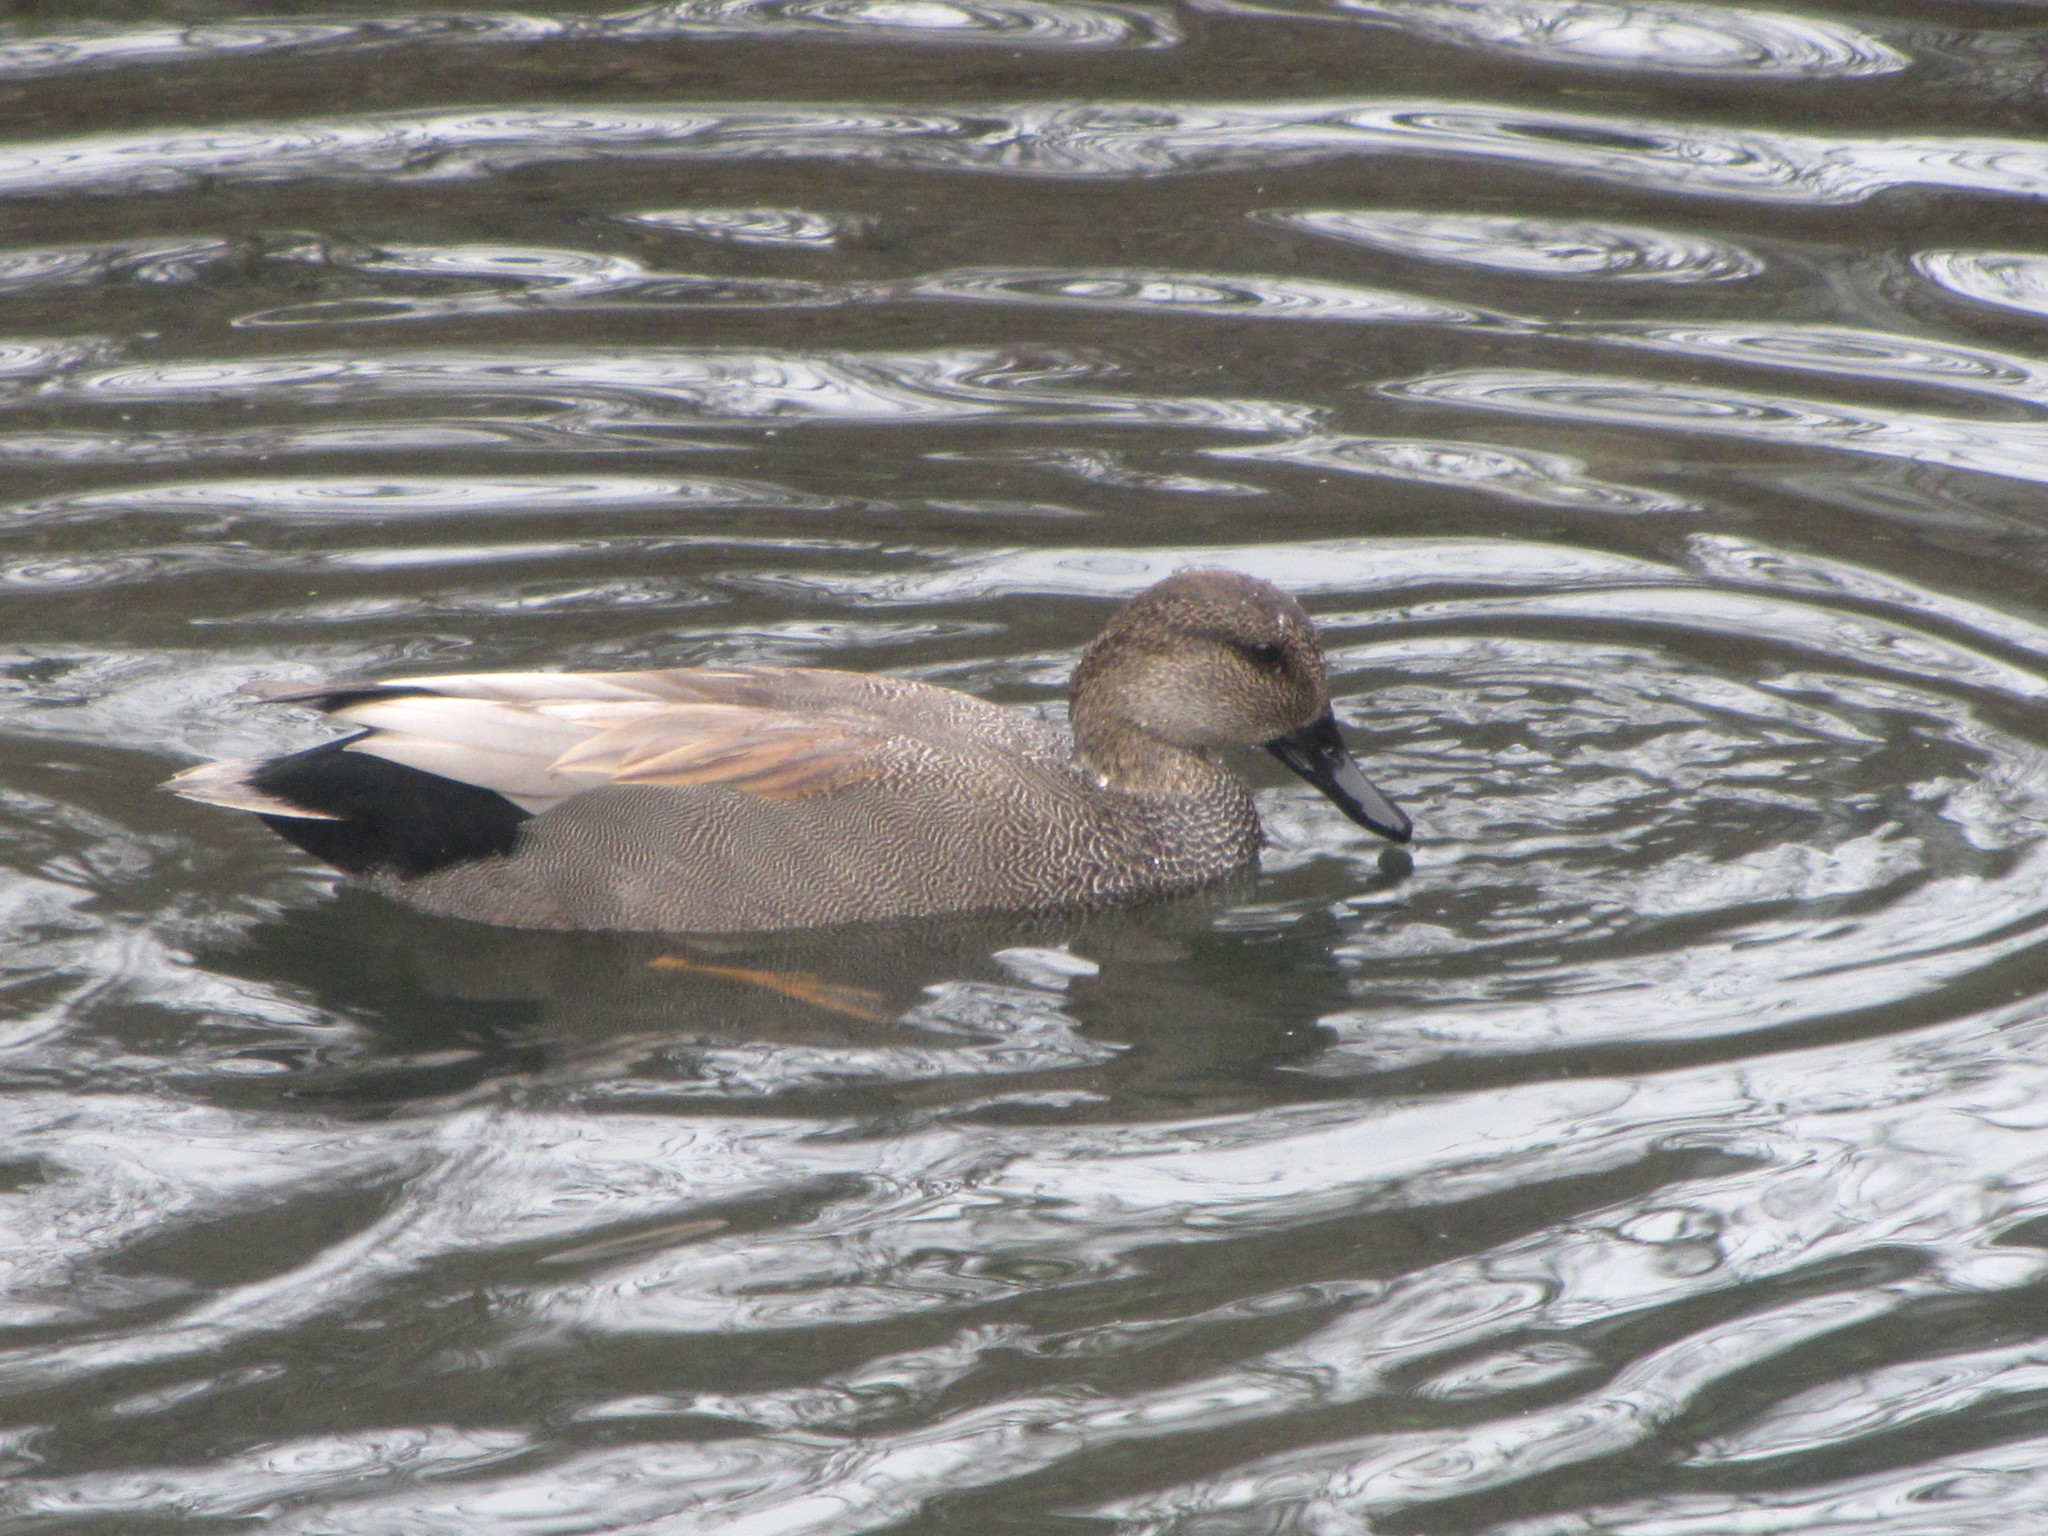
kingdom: Animalia
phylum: Chordata
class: Aves
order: Anseriformes
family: Anatidae
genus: Mareca
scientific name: Mareca strepera
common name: Gadwall
